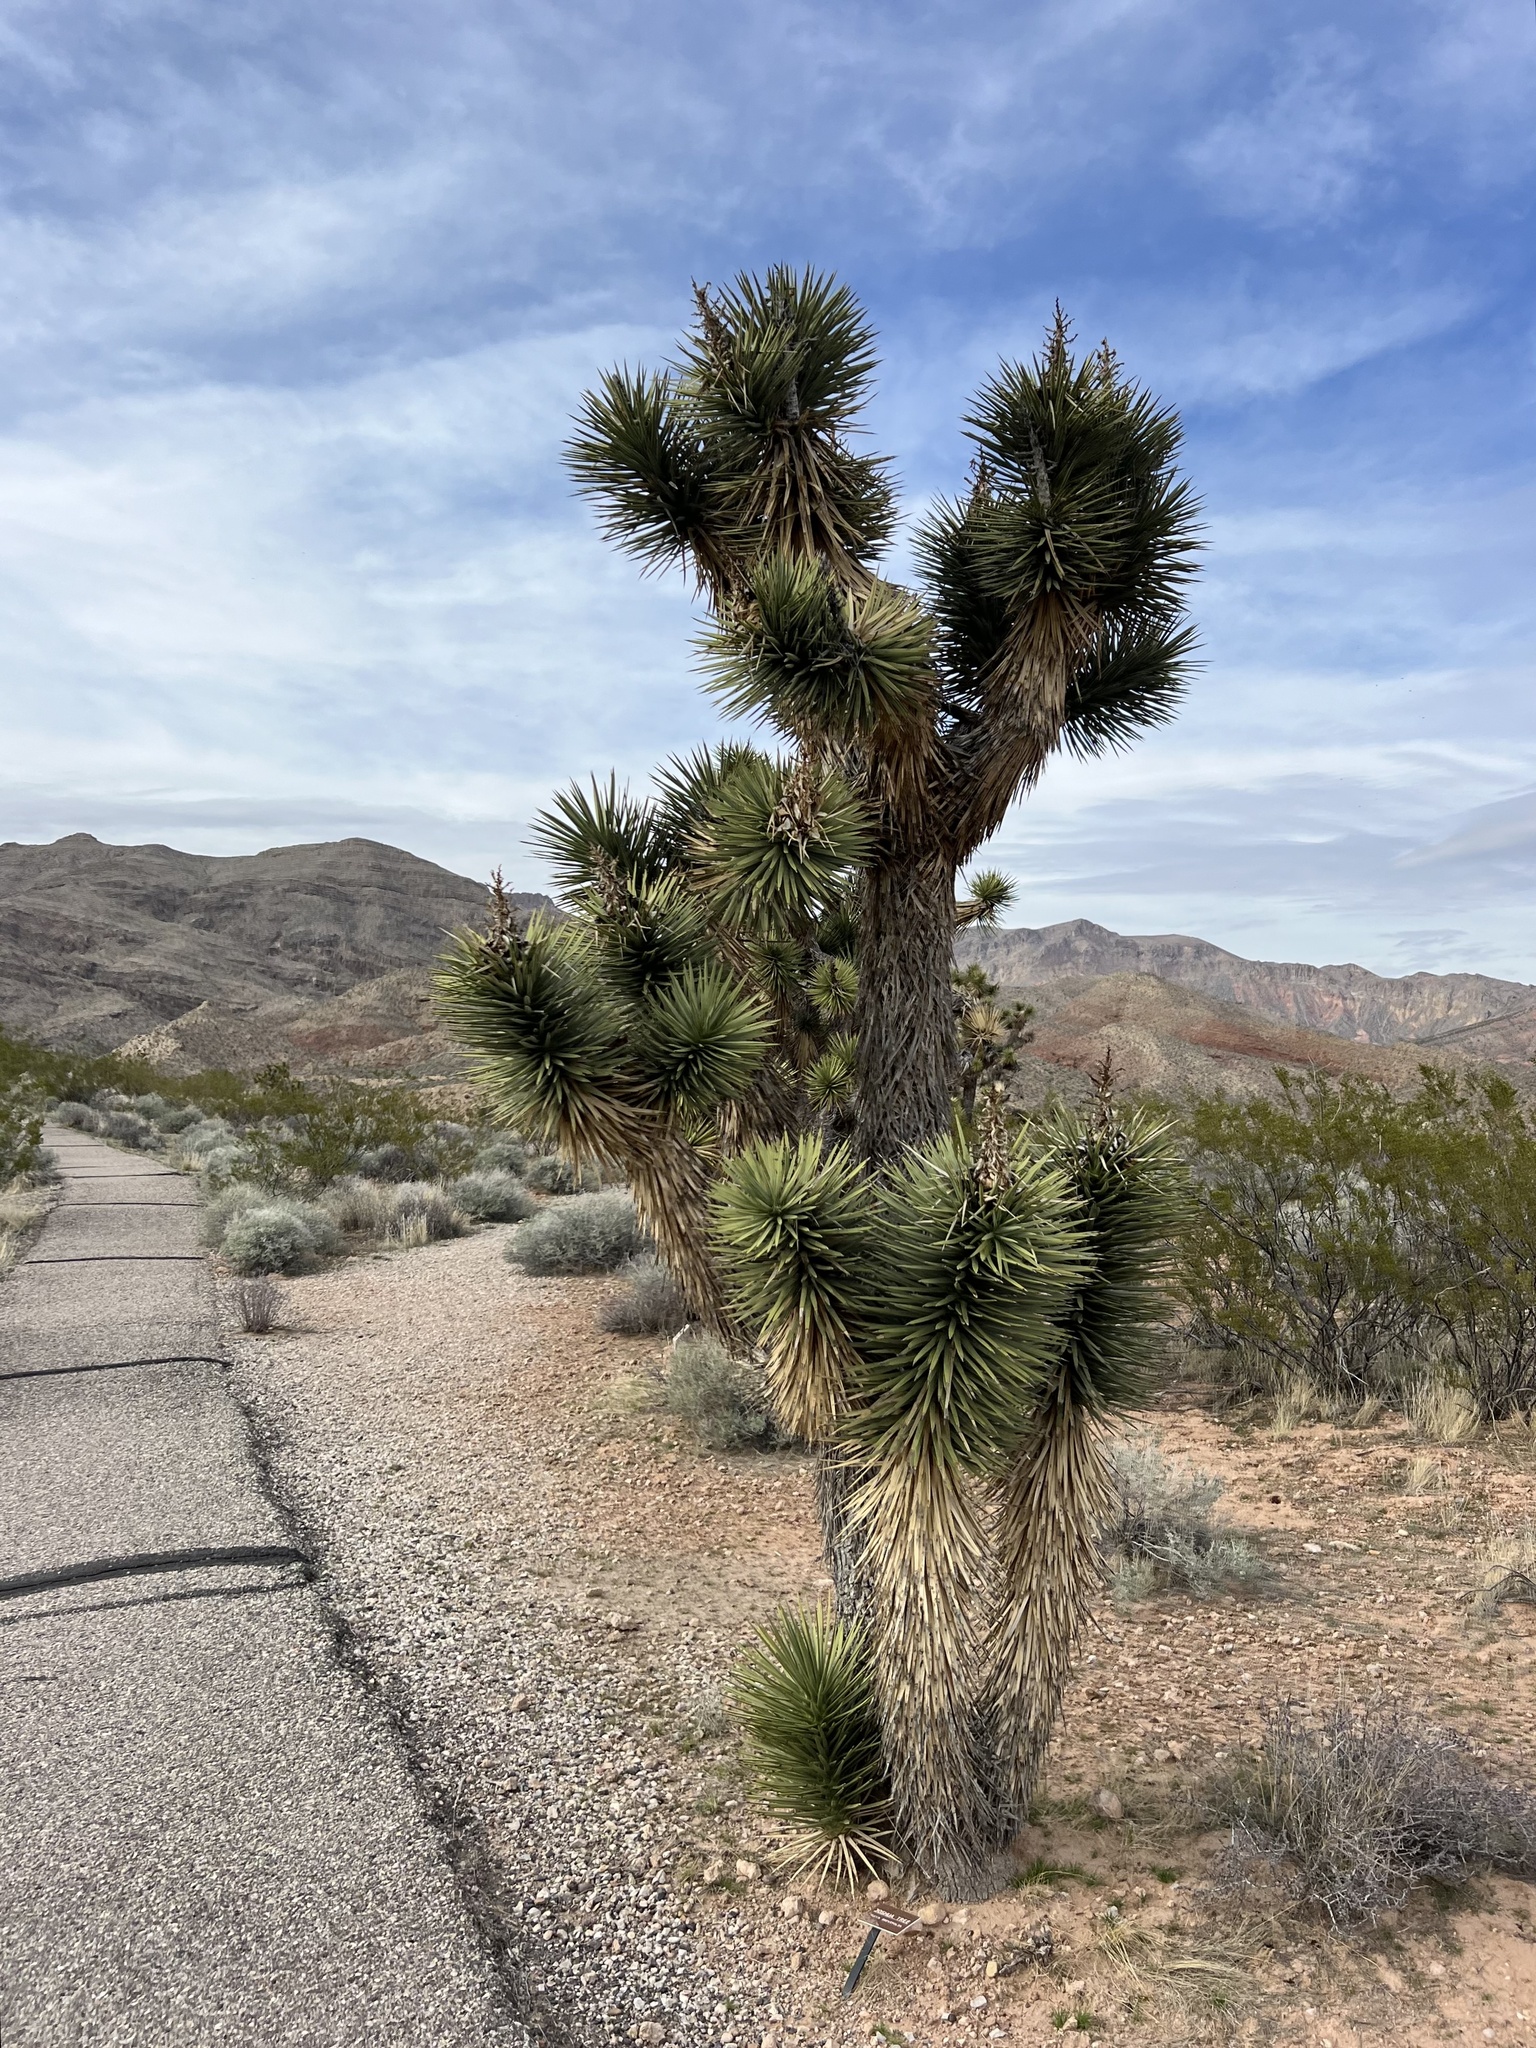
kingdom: Plantae
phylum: Tracheophyta
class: Liliopsida
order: Asparagales
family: Asparagaceae
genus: Yucca
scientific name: Yucca brevifolia
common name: Joshua tree
